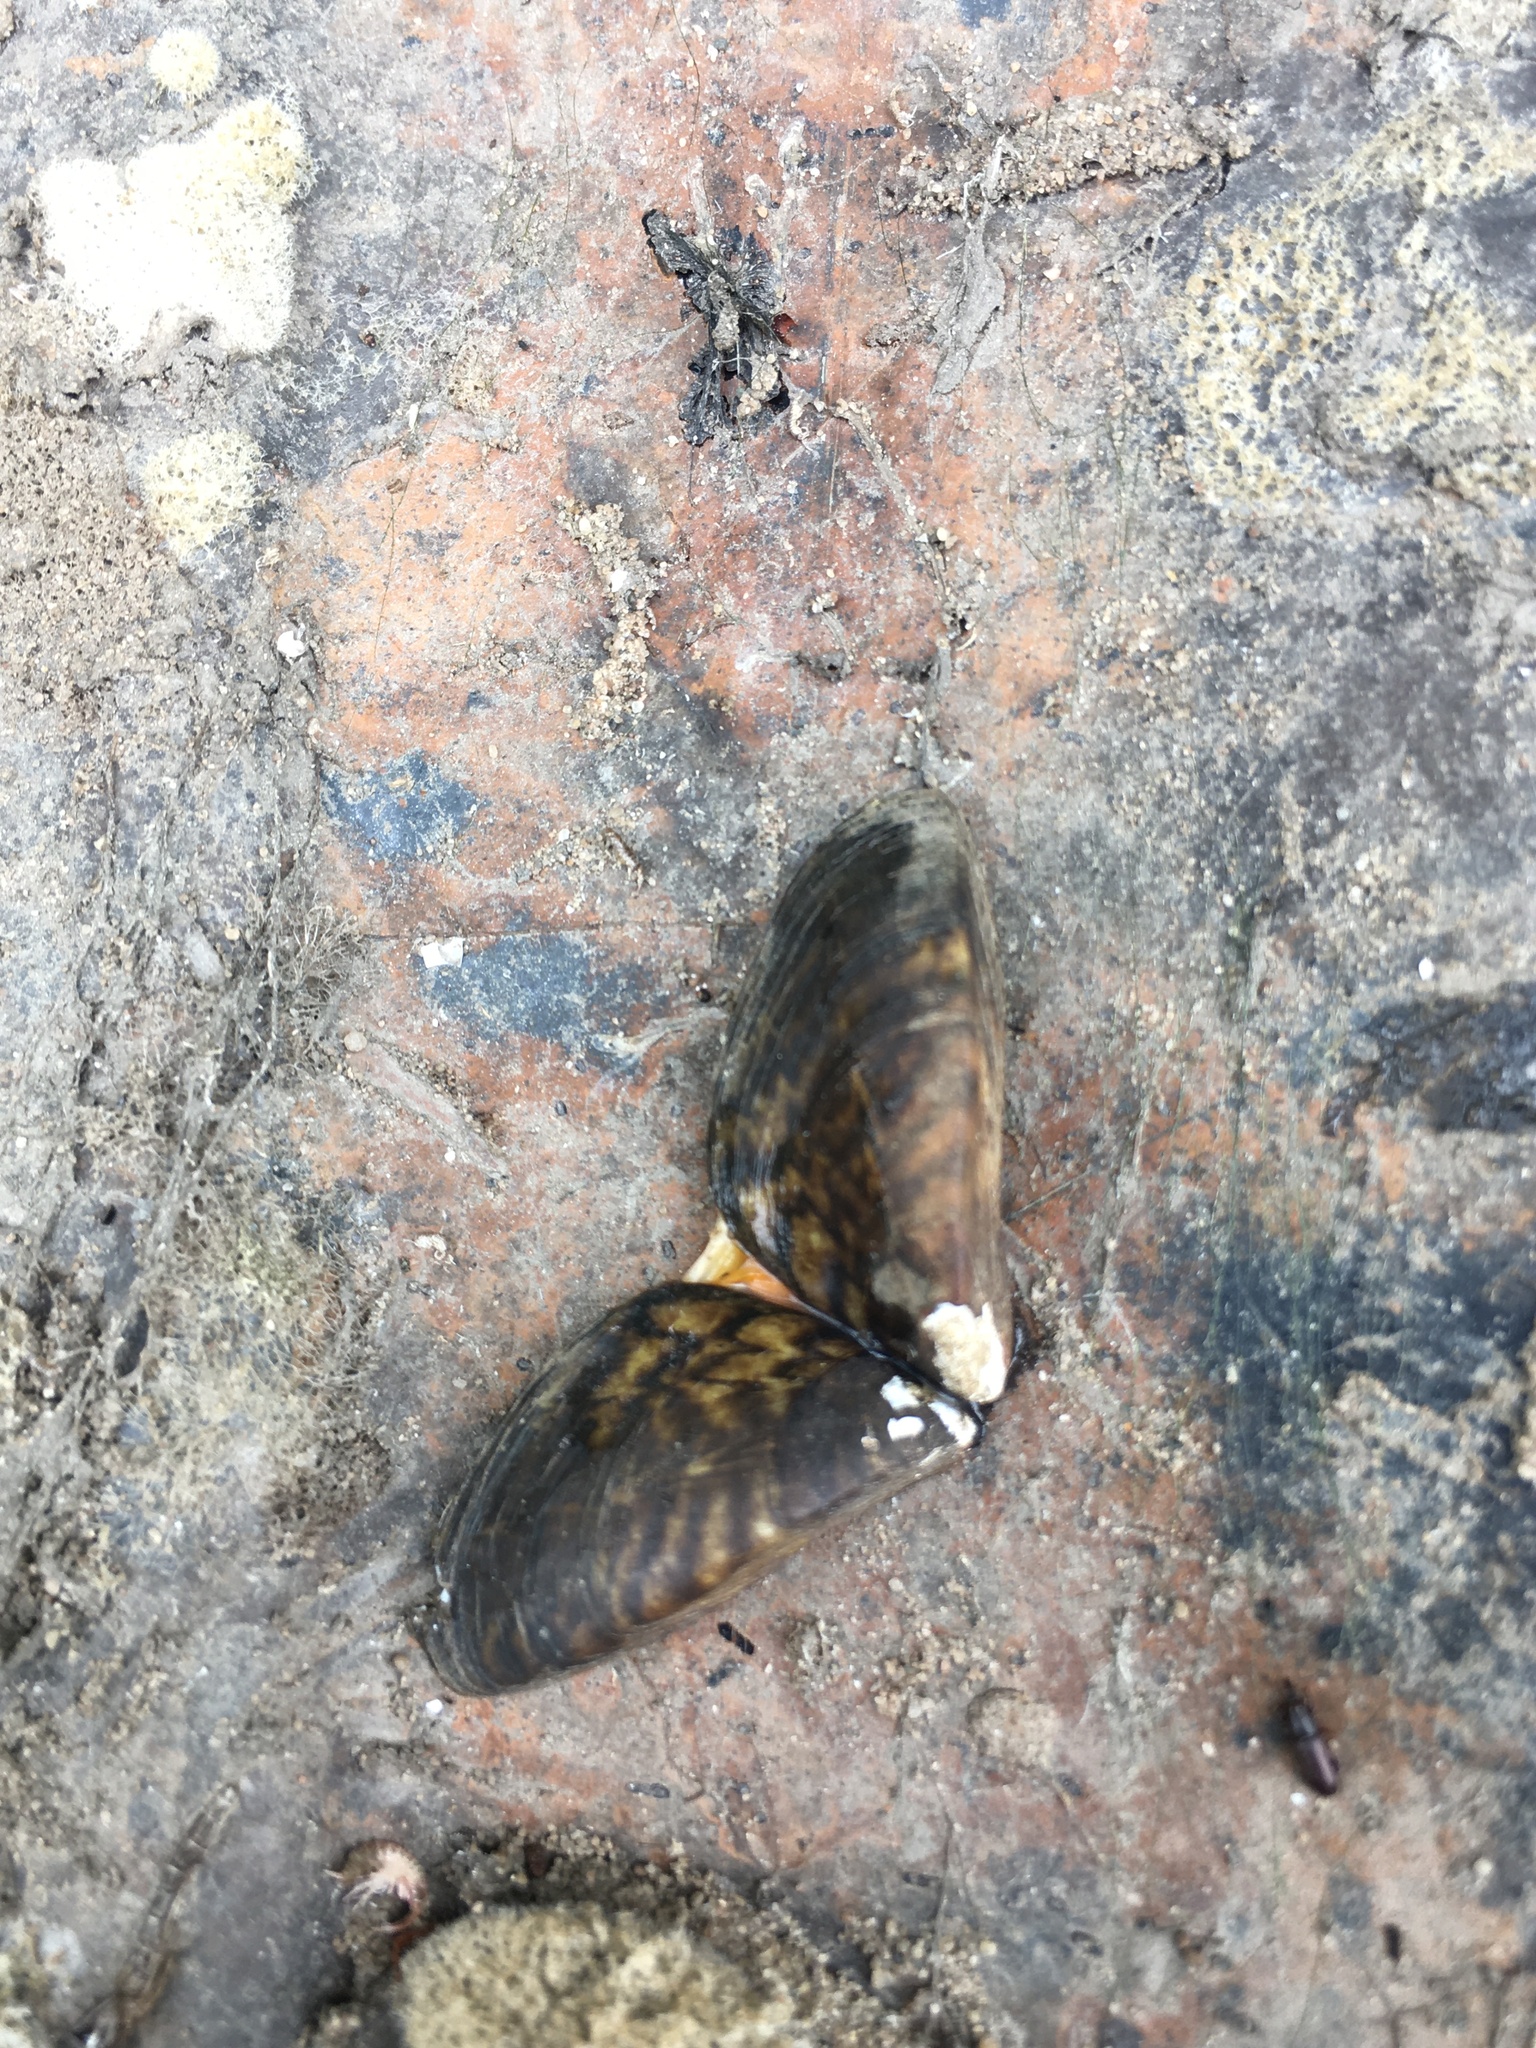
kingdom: Animalia
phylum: Mollusca
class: Bivalvia
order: Myida
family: Dreissenidae
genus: Dreissena
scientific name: Dreissena polymorpha
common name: Zebra mussel
